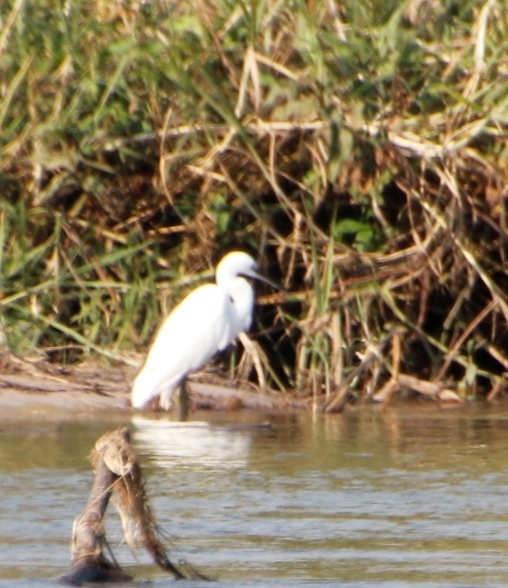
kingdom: Animalia
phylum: Chordata
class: Aves
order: Pelecaniformes
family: Ardeidae
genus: Egretta
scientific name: Egretta garzetta
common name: Little egret
